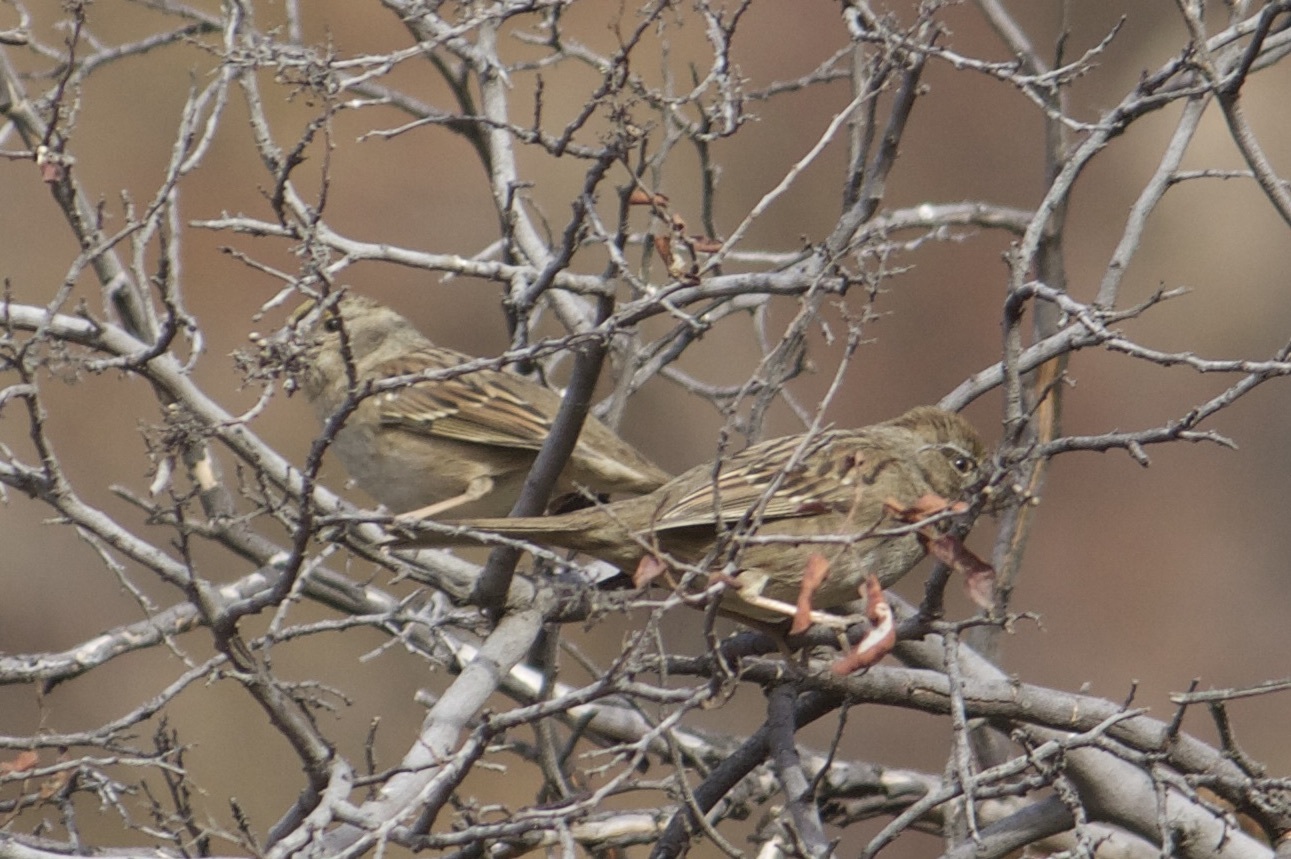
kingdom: Animalia
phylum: Chordata
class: Aves
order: Passeriformes
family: Passerellidae
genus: Zonotrichia
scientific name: Zonotrichia atricapilla
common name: Golden-crowned sparrow
